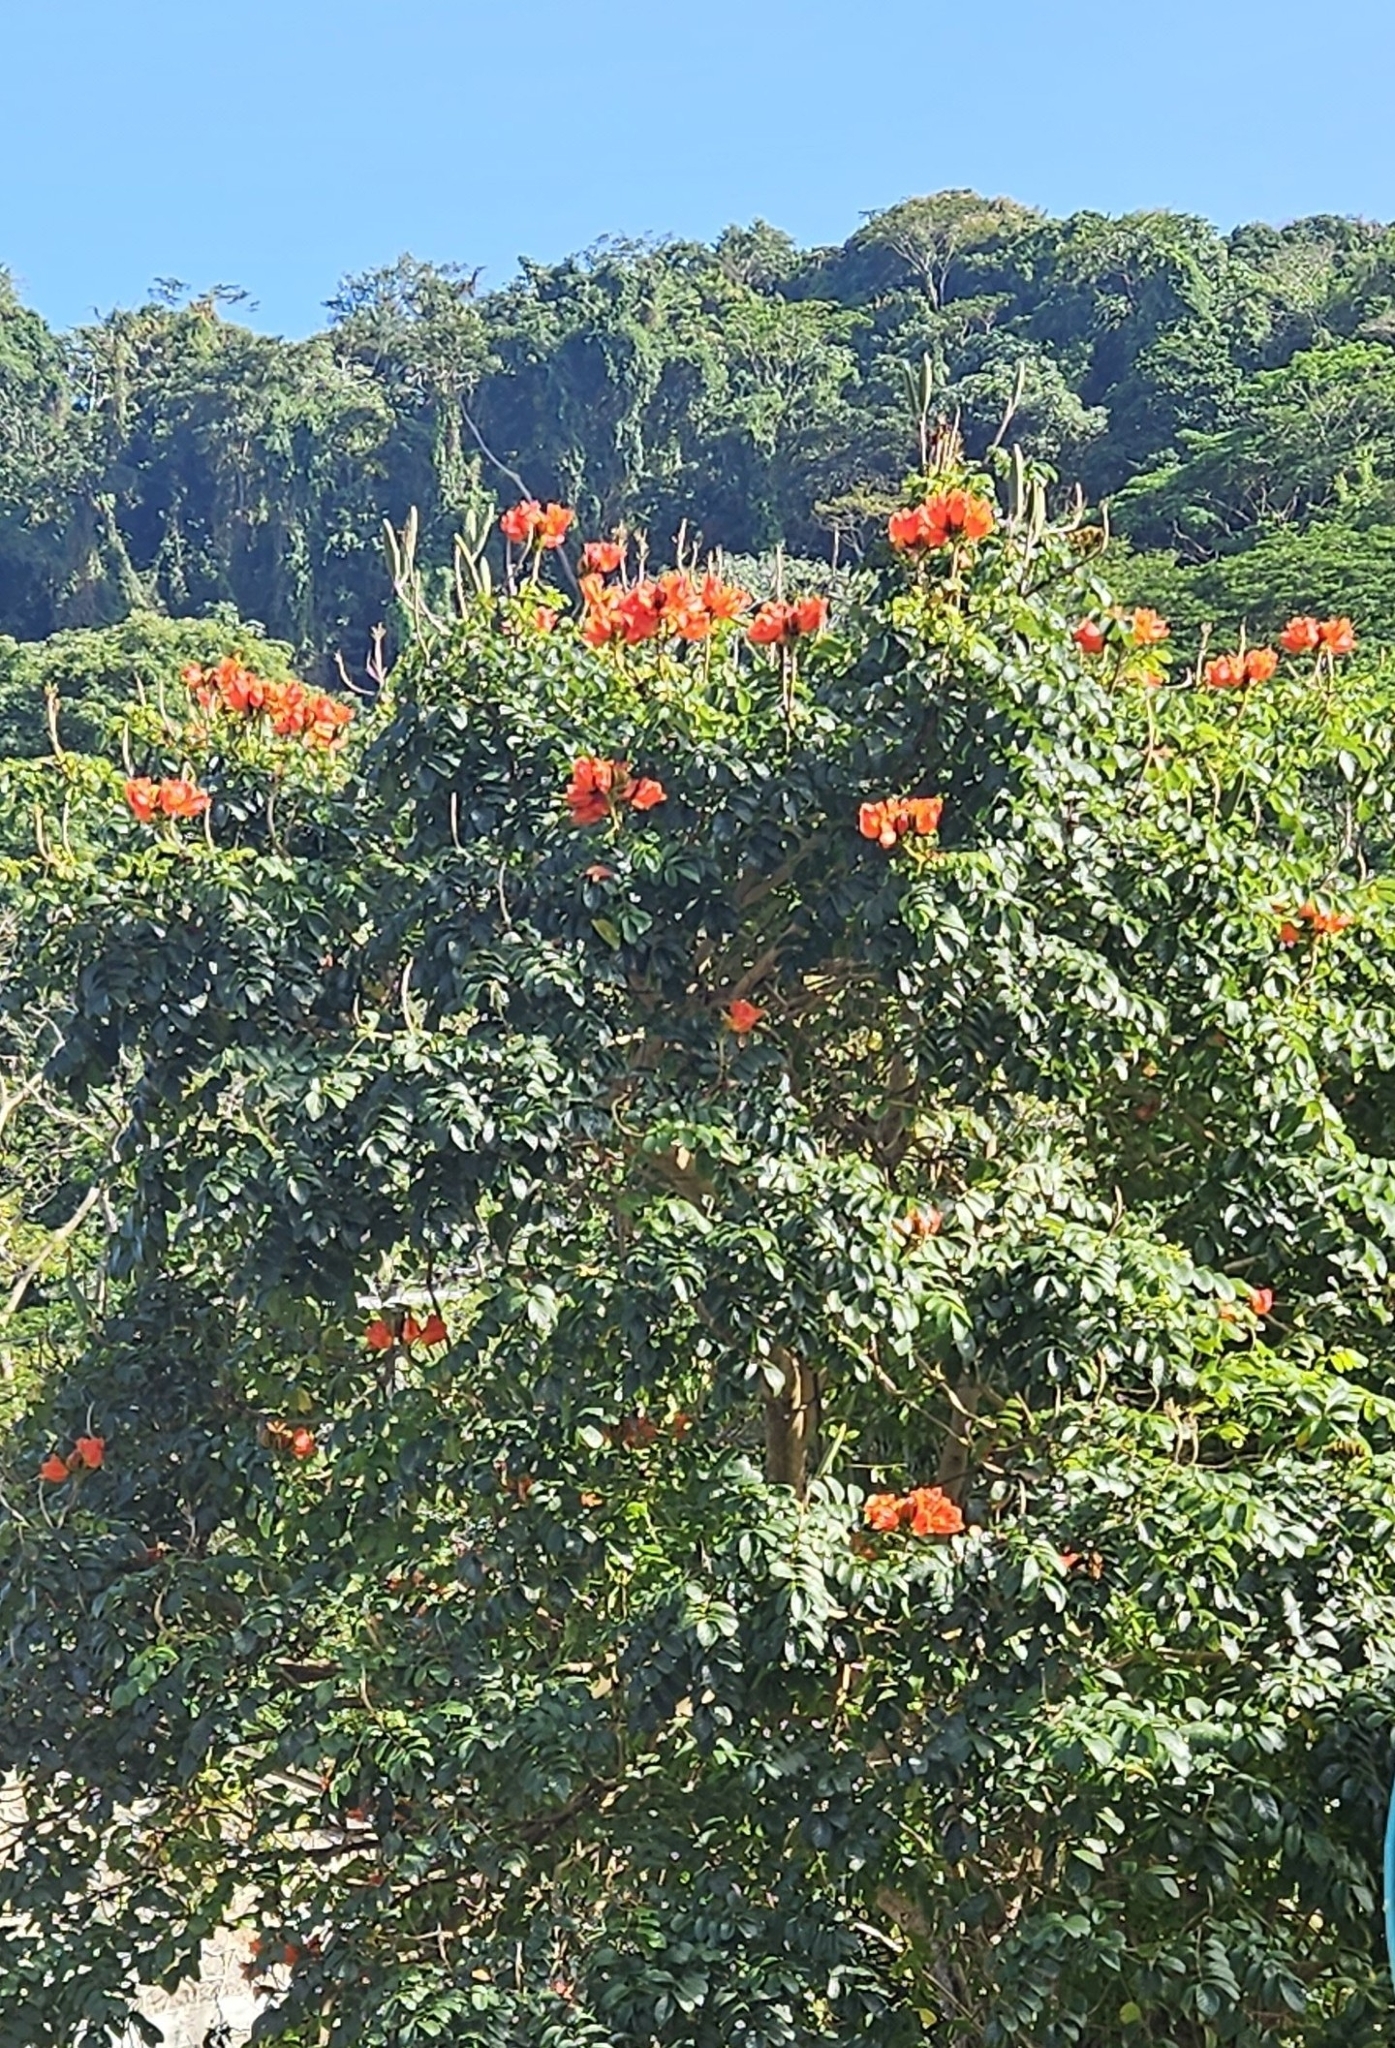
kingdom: Plantae
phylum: Tracheophyta
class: Magnoliopsida
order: Lamiales
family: Bignoniaceae
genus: Spathodea
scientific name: Spathodea campanulata
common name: African tuliptree
